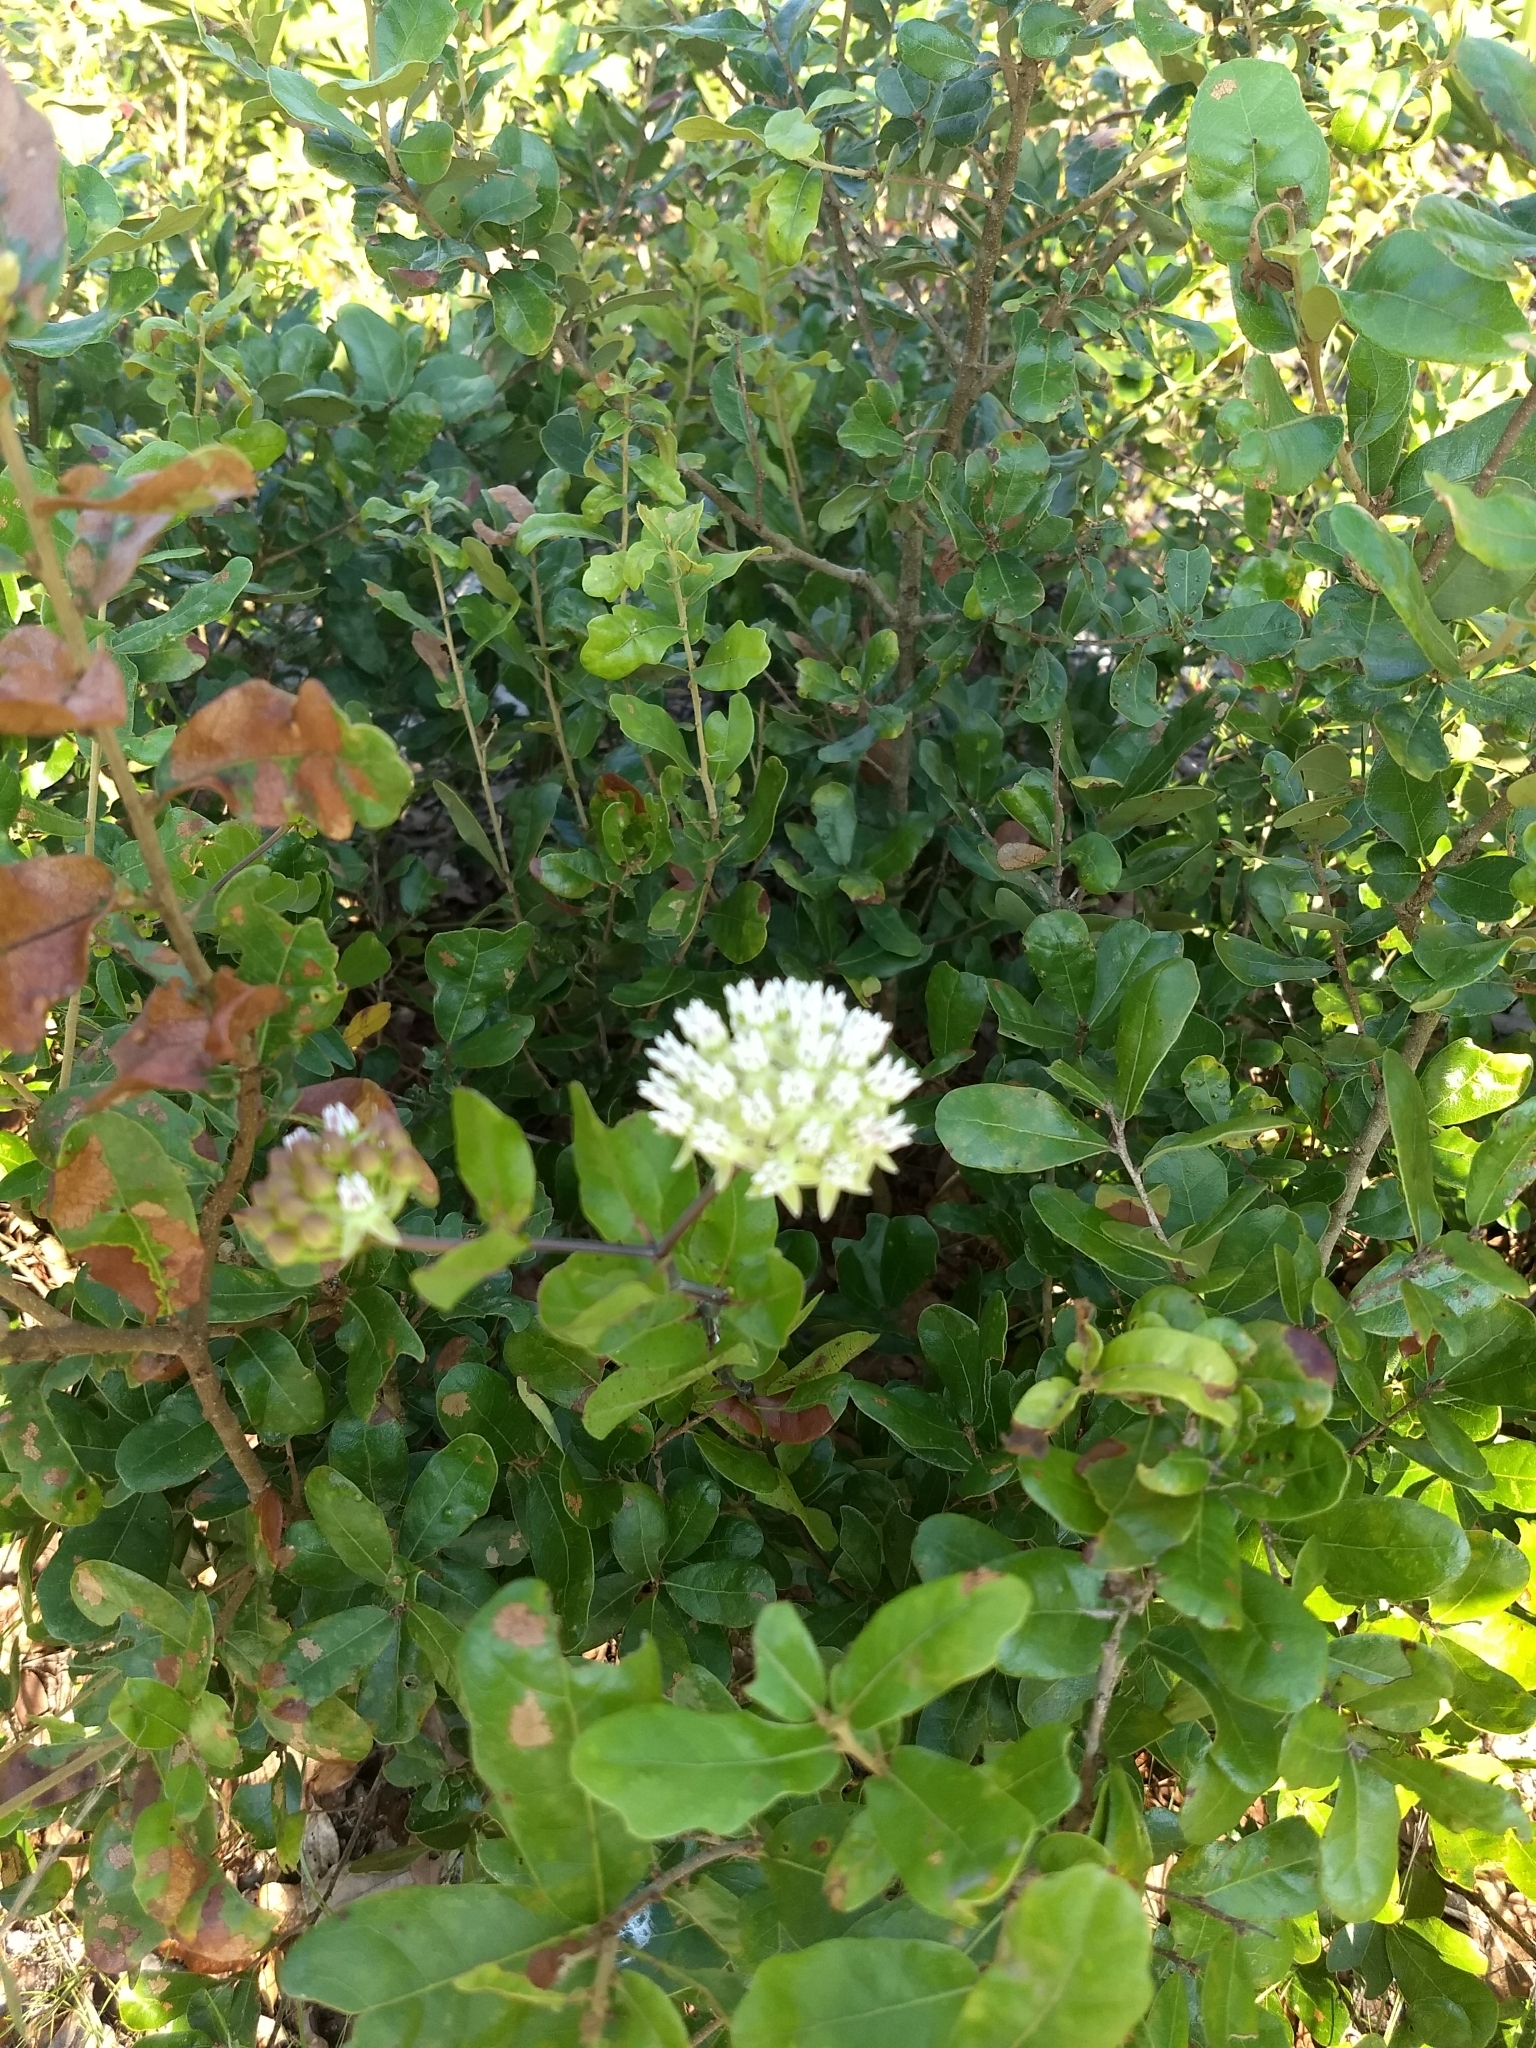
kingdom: Plantae
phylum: Tracheophyta
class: Magnoliopsida
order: Gentianales
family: Apocynaceae
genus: Asclepias
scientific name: Asclepias curtissii
